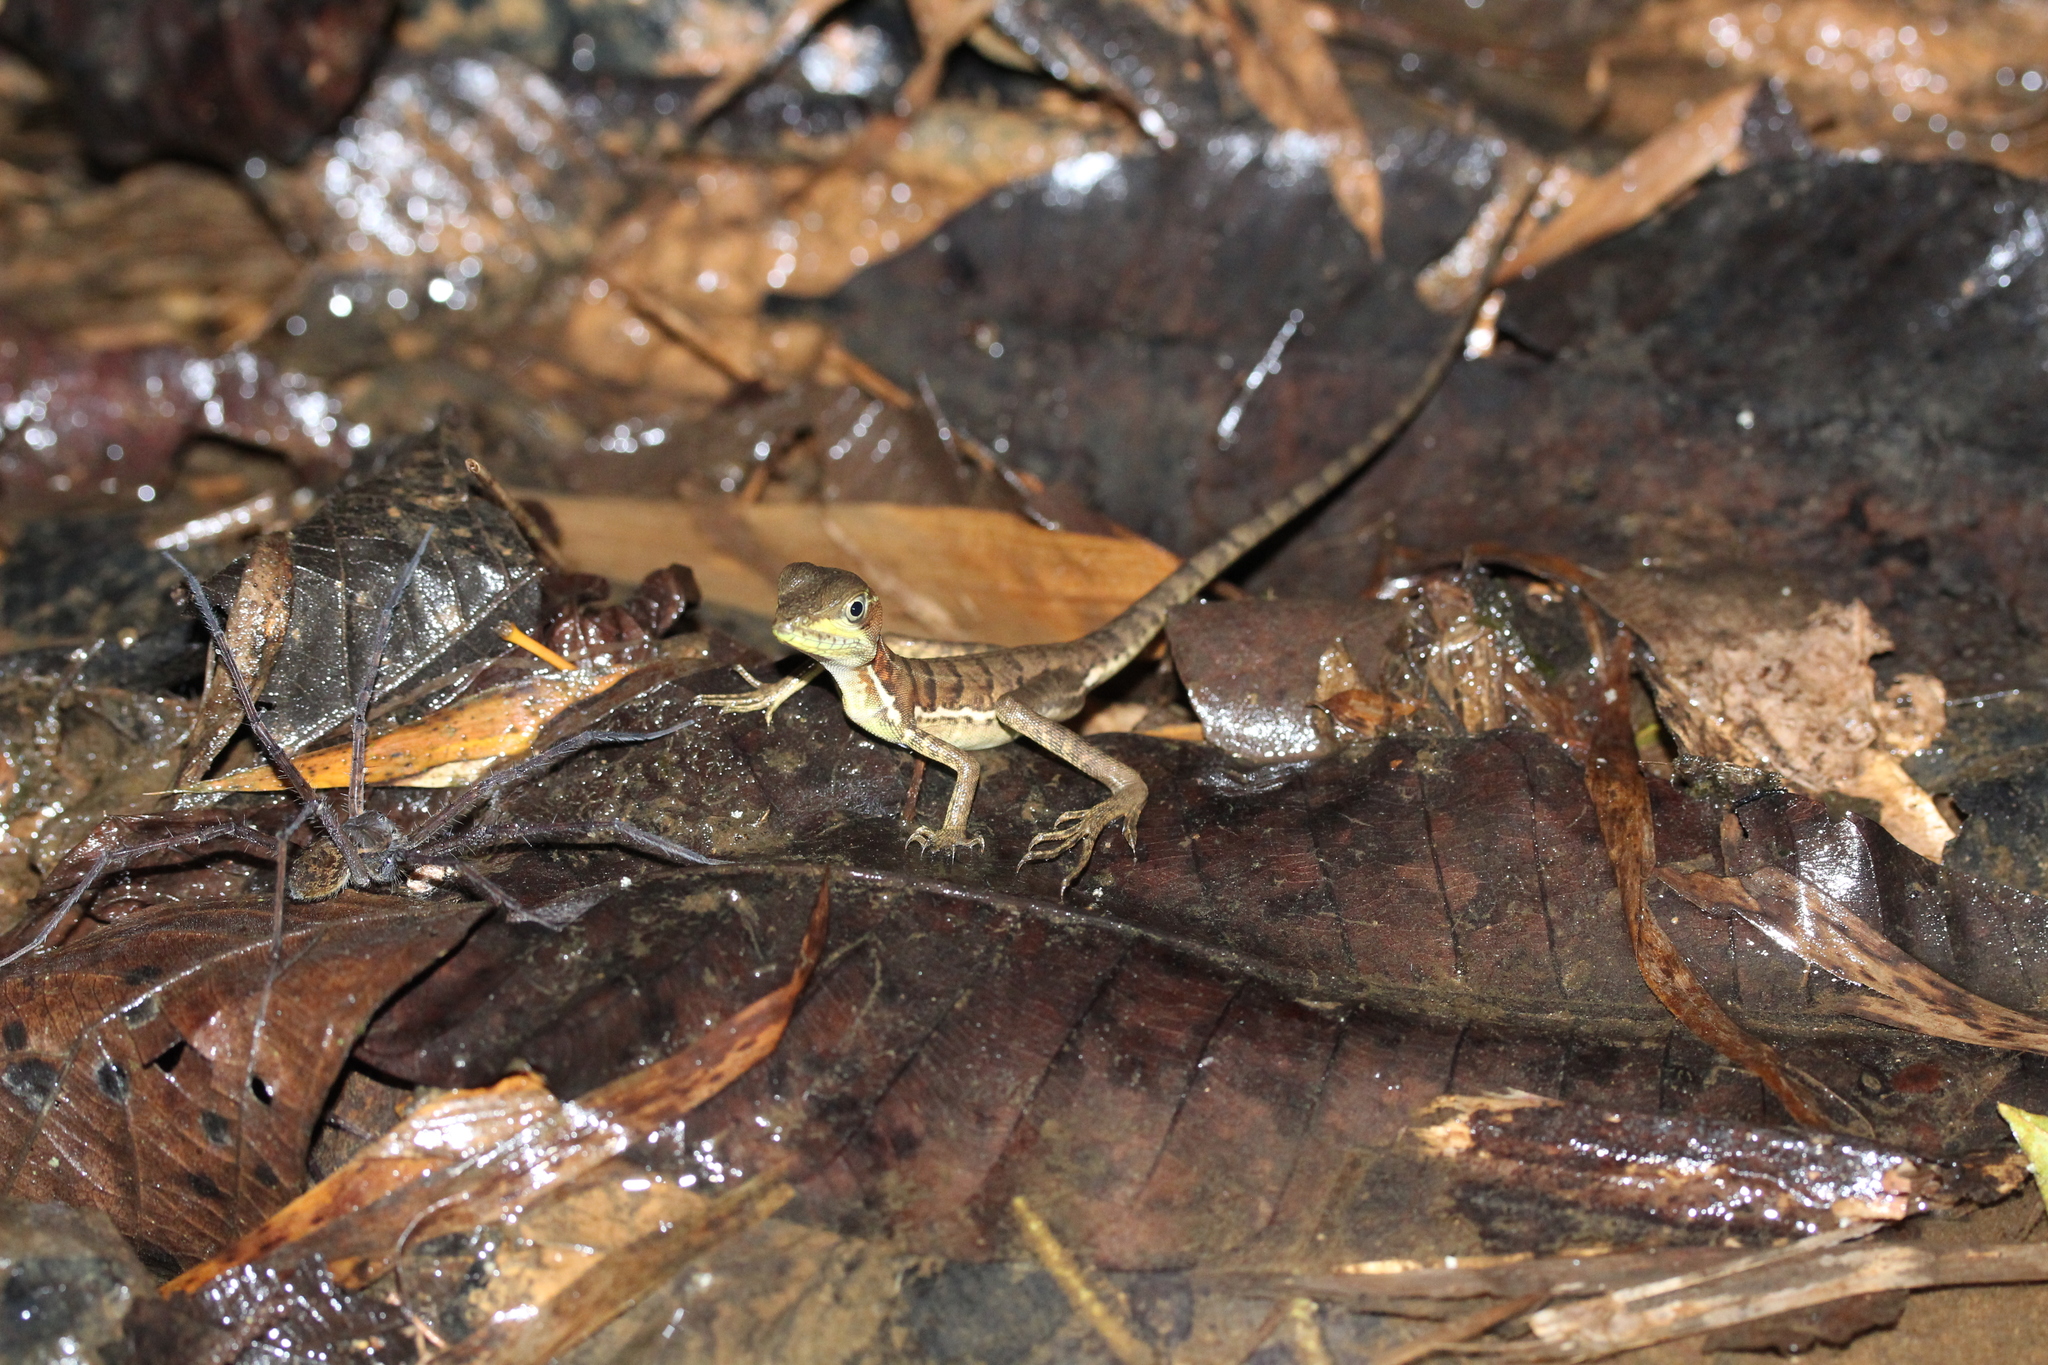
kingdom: Animalia
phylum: Chordata
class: Squamata
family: Corytophanidae
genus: Basiliscus
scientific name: Basiliscus galeritus
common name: Western basilisk
